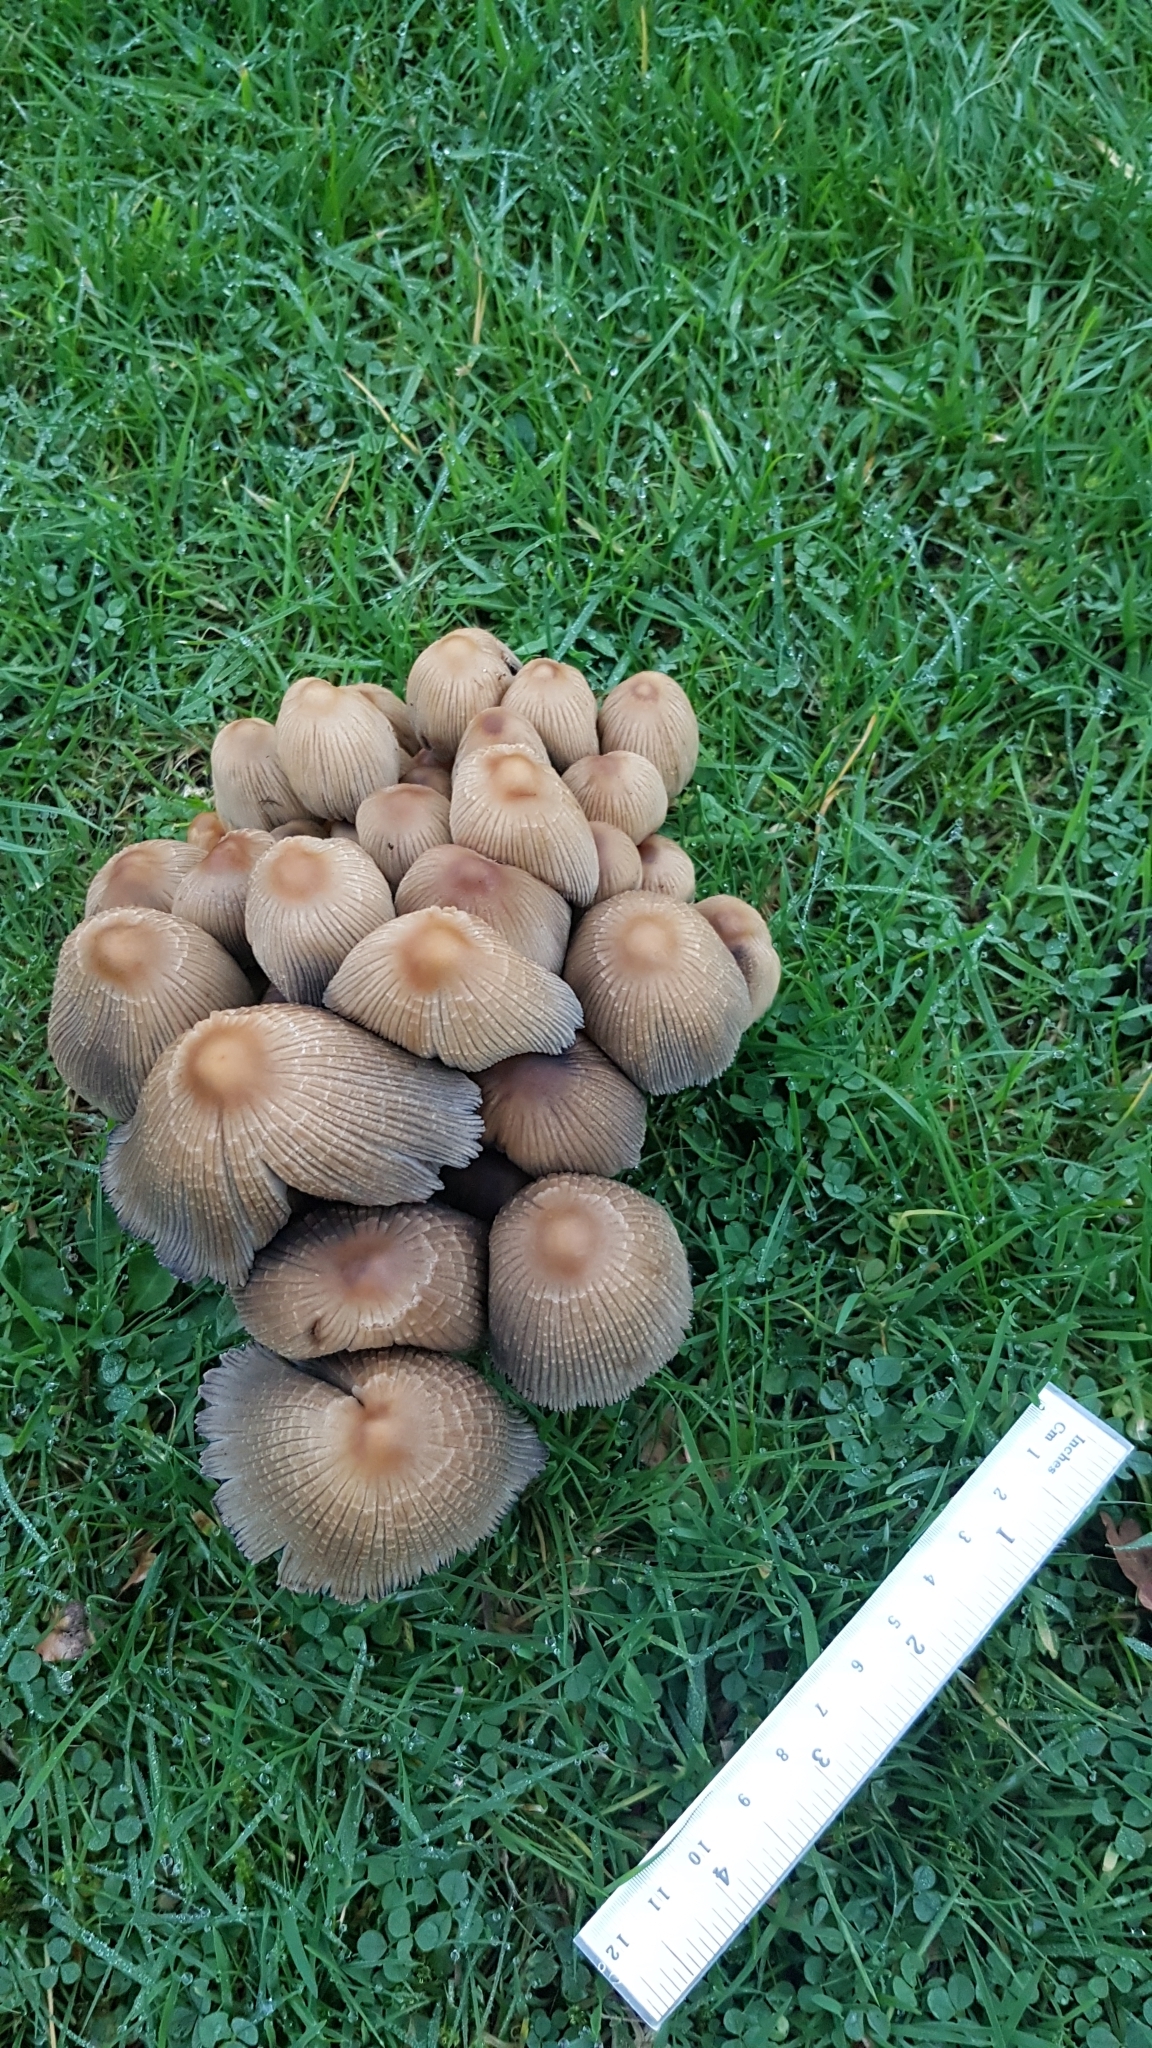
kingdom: Fungi
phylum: Basidiomycota
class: Agaricomycetes
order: Agaricales
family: Psathyrellaceae
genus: Coprinellus
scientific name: Coprinellus micaceus
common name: Glistening ink-cap
